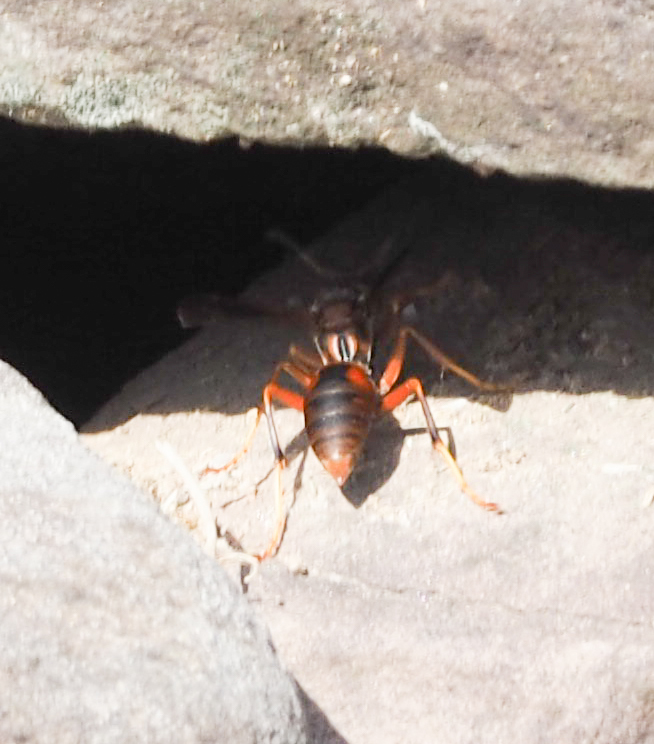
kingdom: Animalia
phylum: Arthropoda
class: Insecta
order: Hymenoptera
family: Vespidae
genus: Fuscopolistes
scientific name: Fuscopolistes
